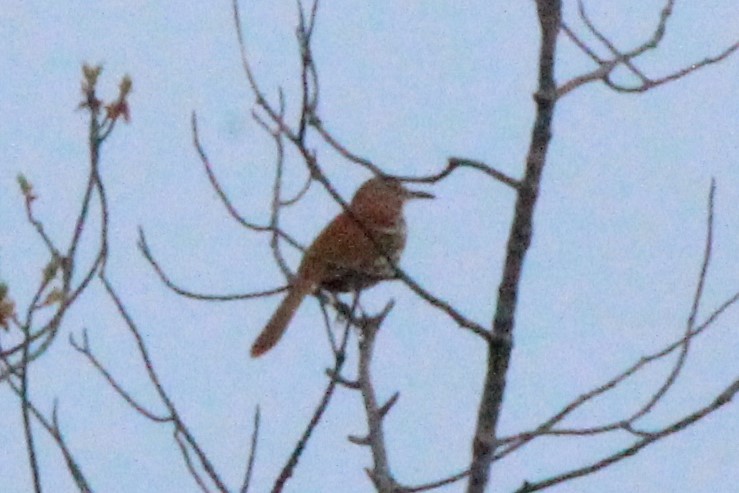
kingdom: Animalia
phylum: Chordata
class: Aves
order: Passeriformes
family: Mimidae
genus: Toxostoma
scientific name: Toxostoma rufum
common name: Brown thrasher
